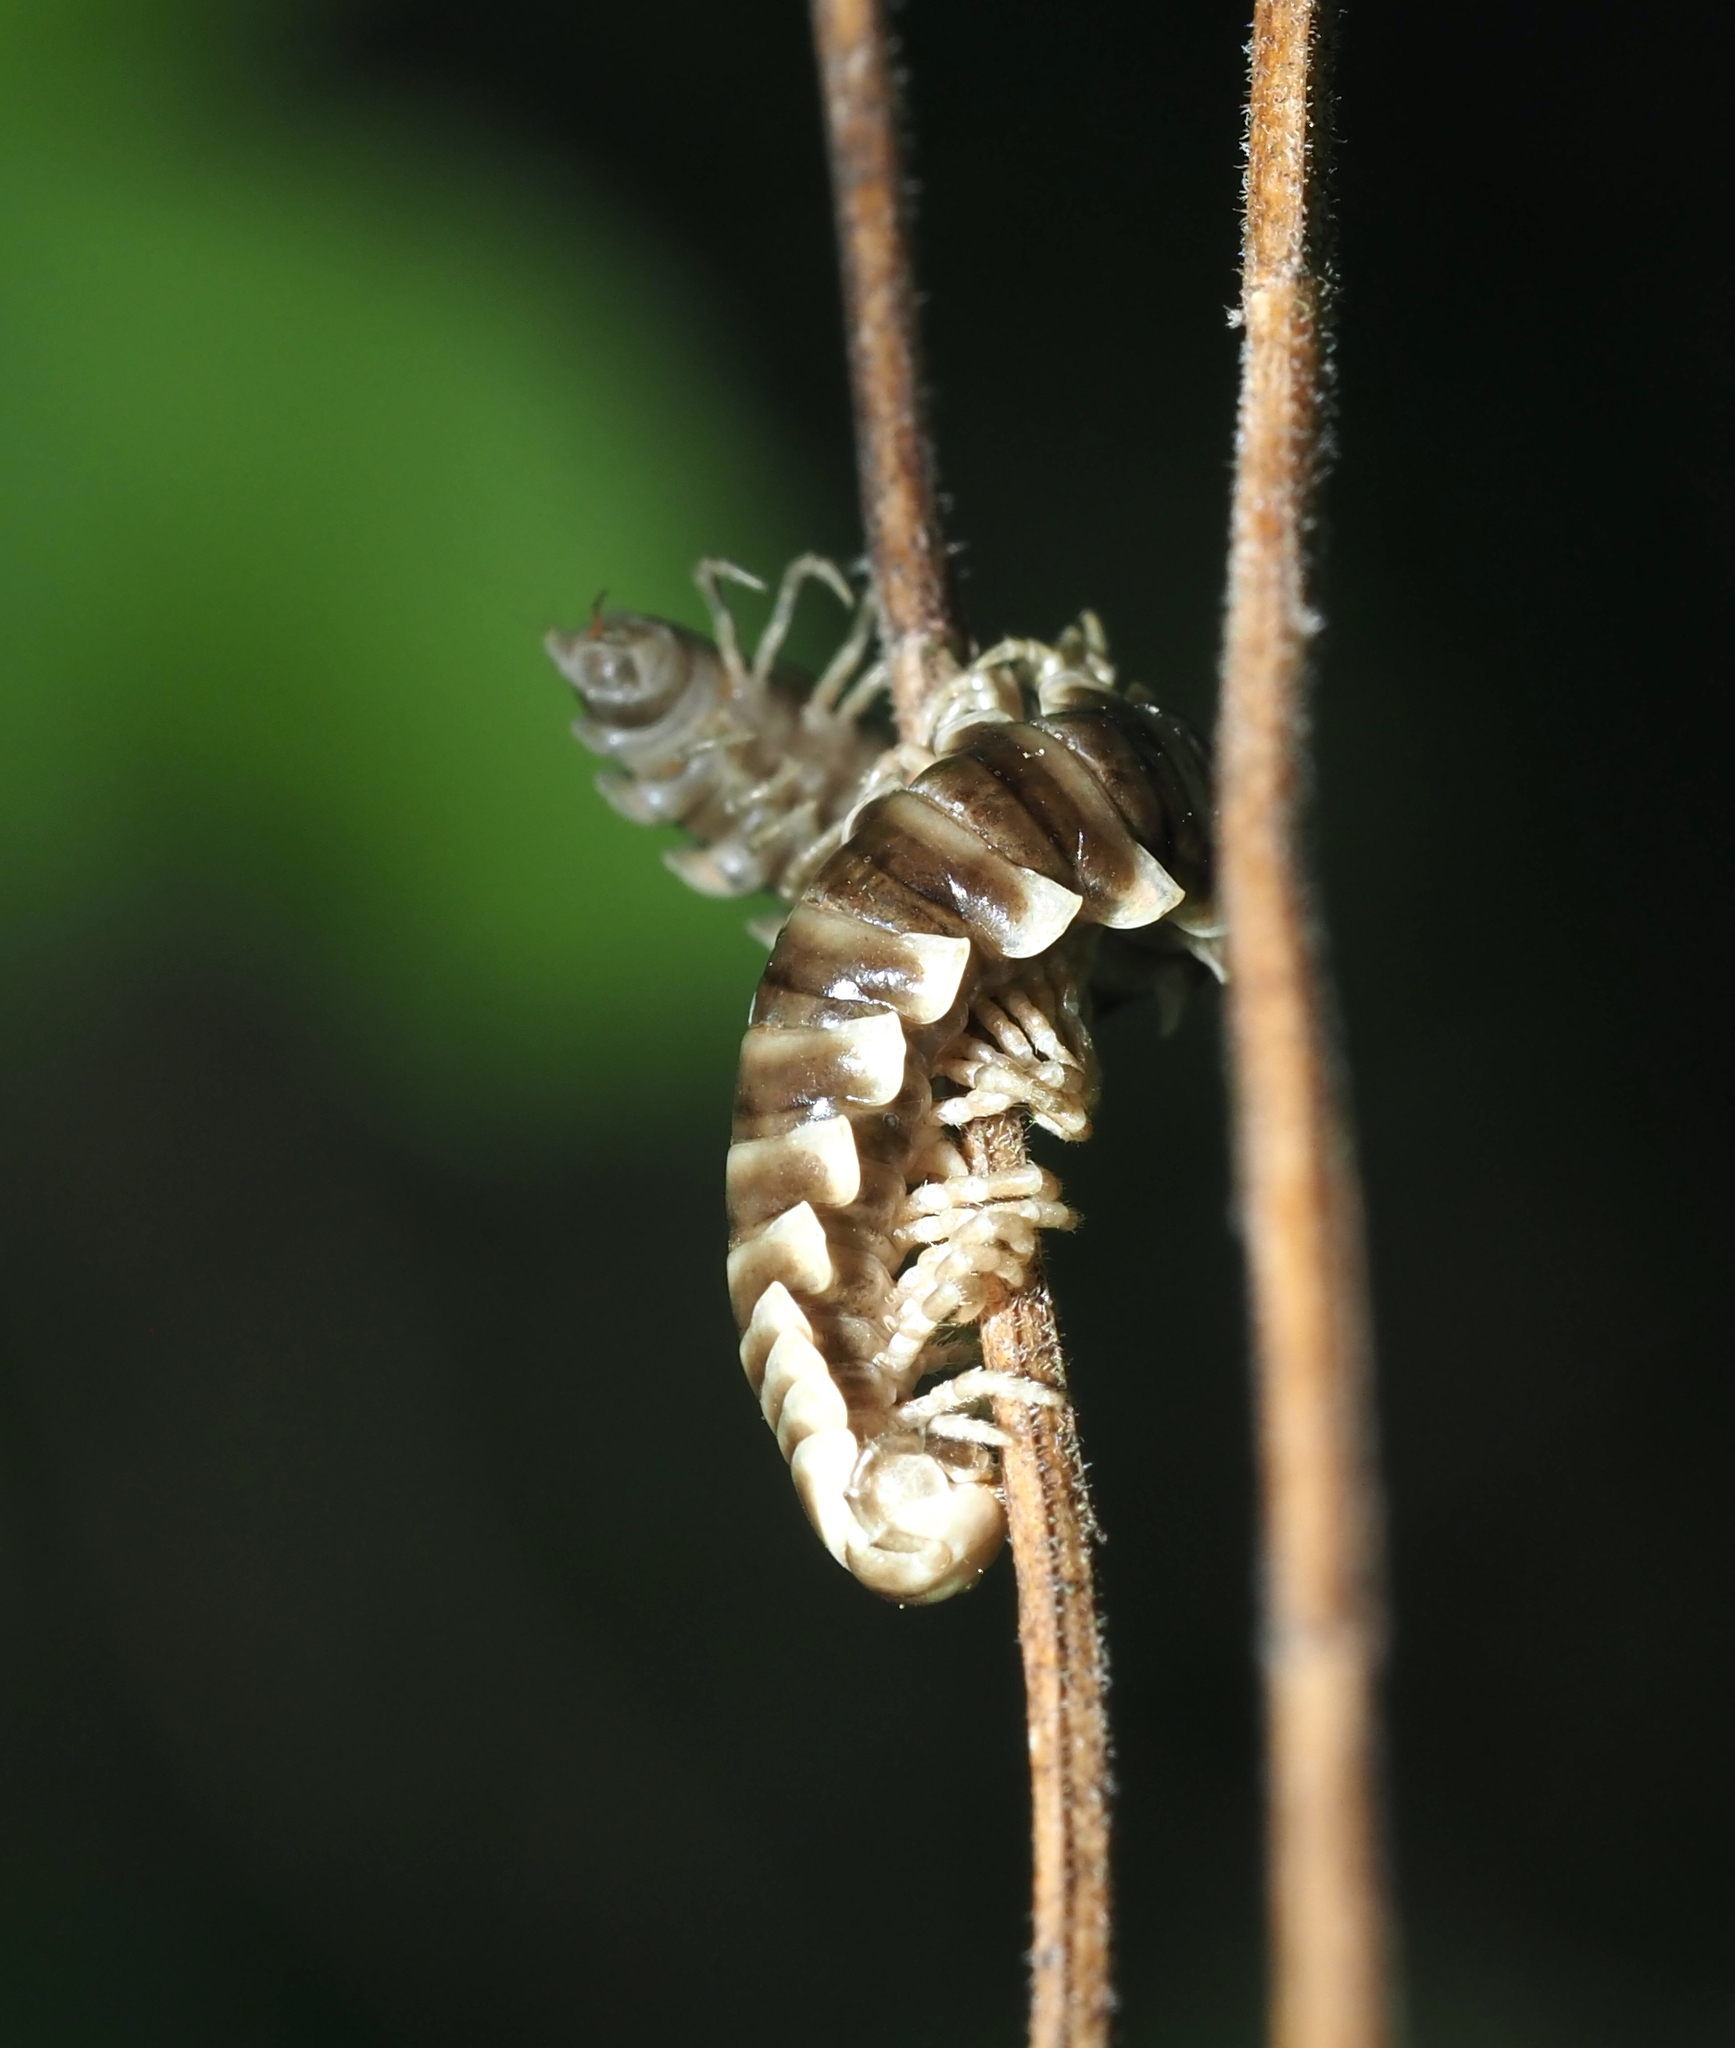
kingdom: Fungi
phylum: Entomophthoromycota
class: Entomophthoromycetes
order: Entomophthorales
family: Entomophthoraceae
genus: Arthrophaga
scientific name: Arthrophaga myriapodina
